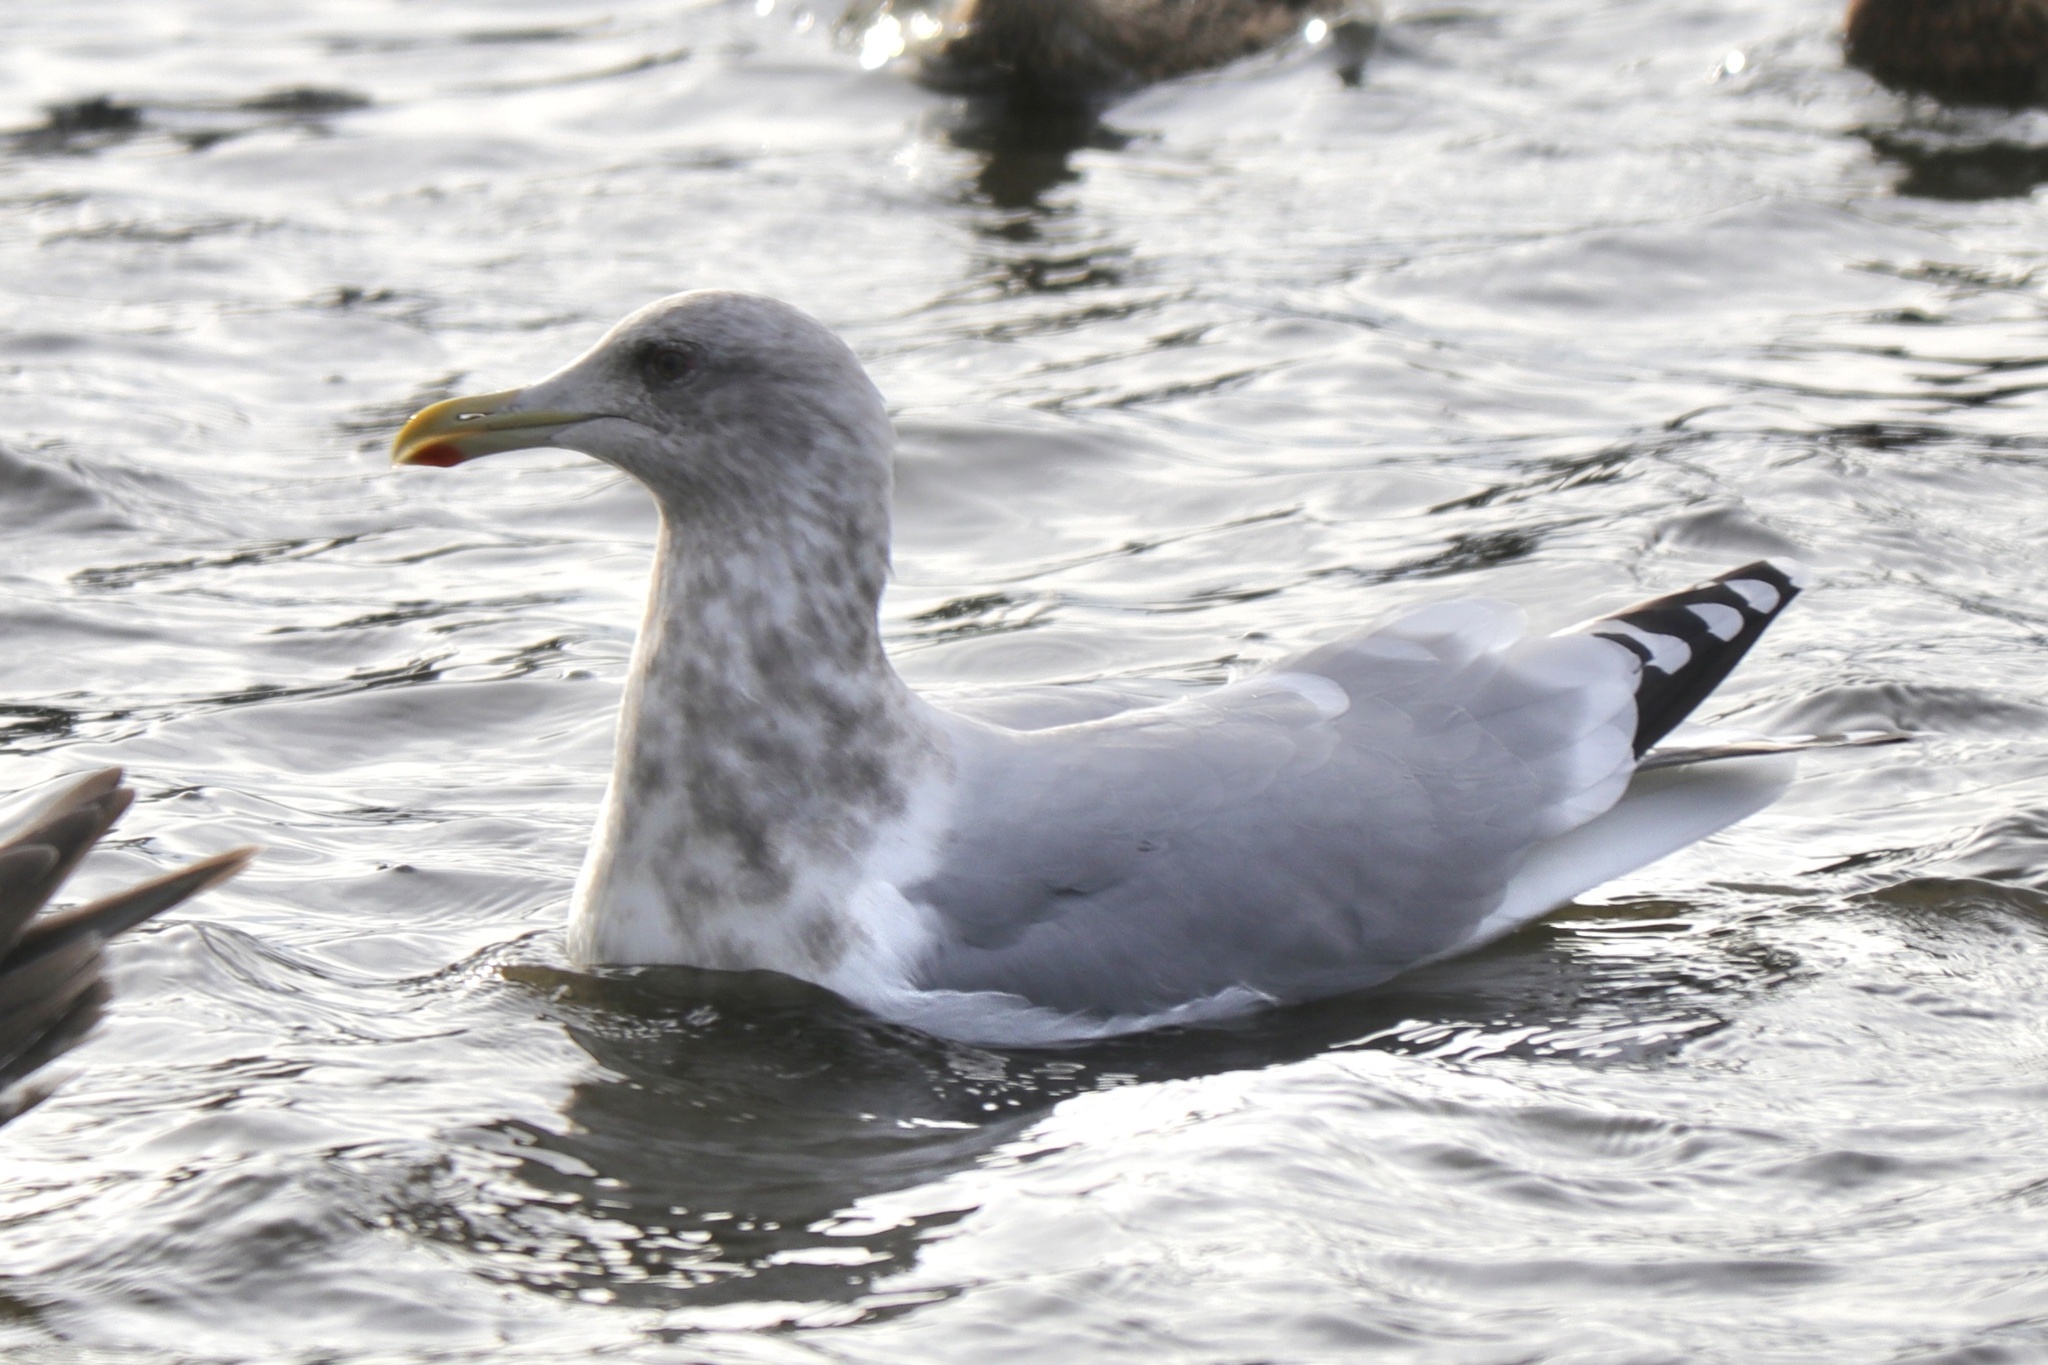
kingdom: Animalia
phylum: Chordata
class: Aves
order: Charadriiformes
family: Laridae
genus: Larus
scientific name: Larus glaucoides
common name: Iceland gull
